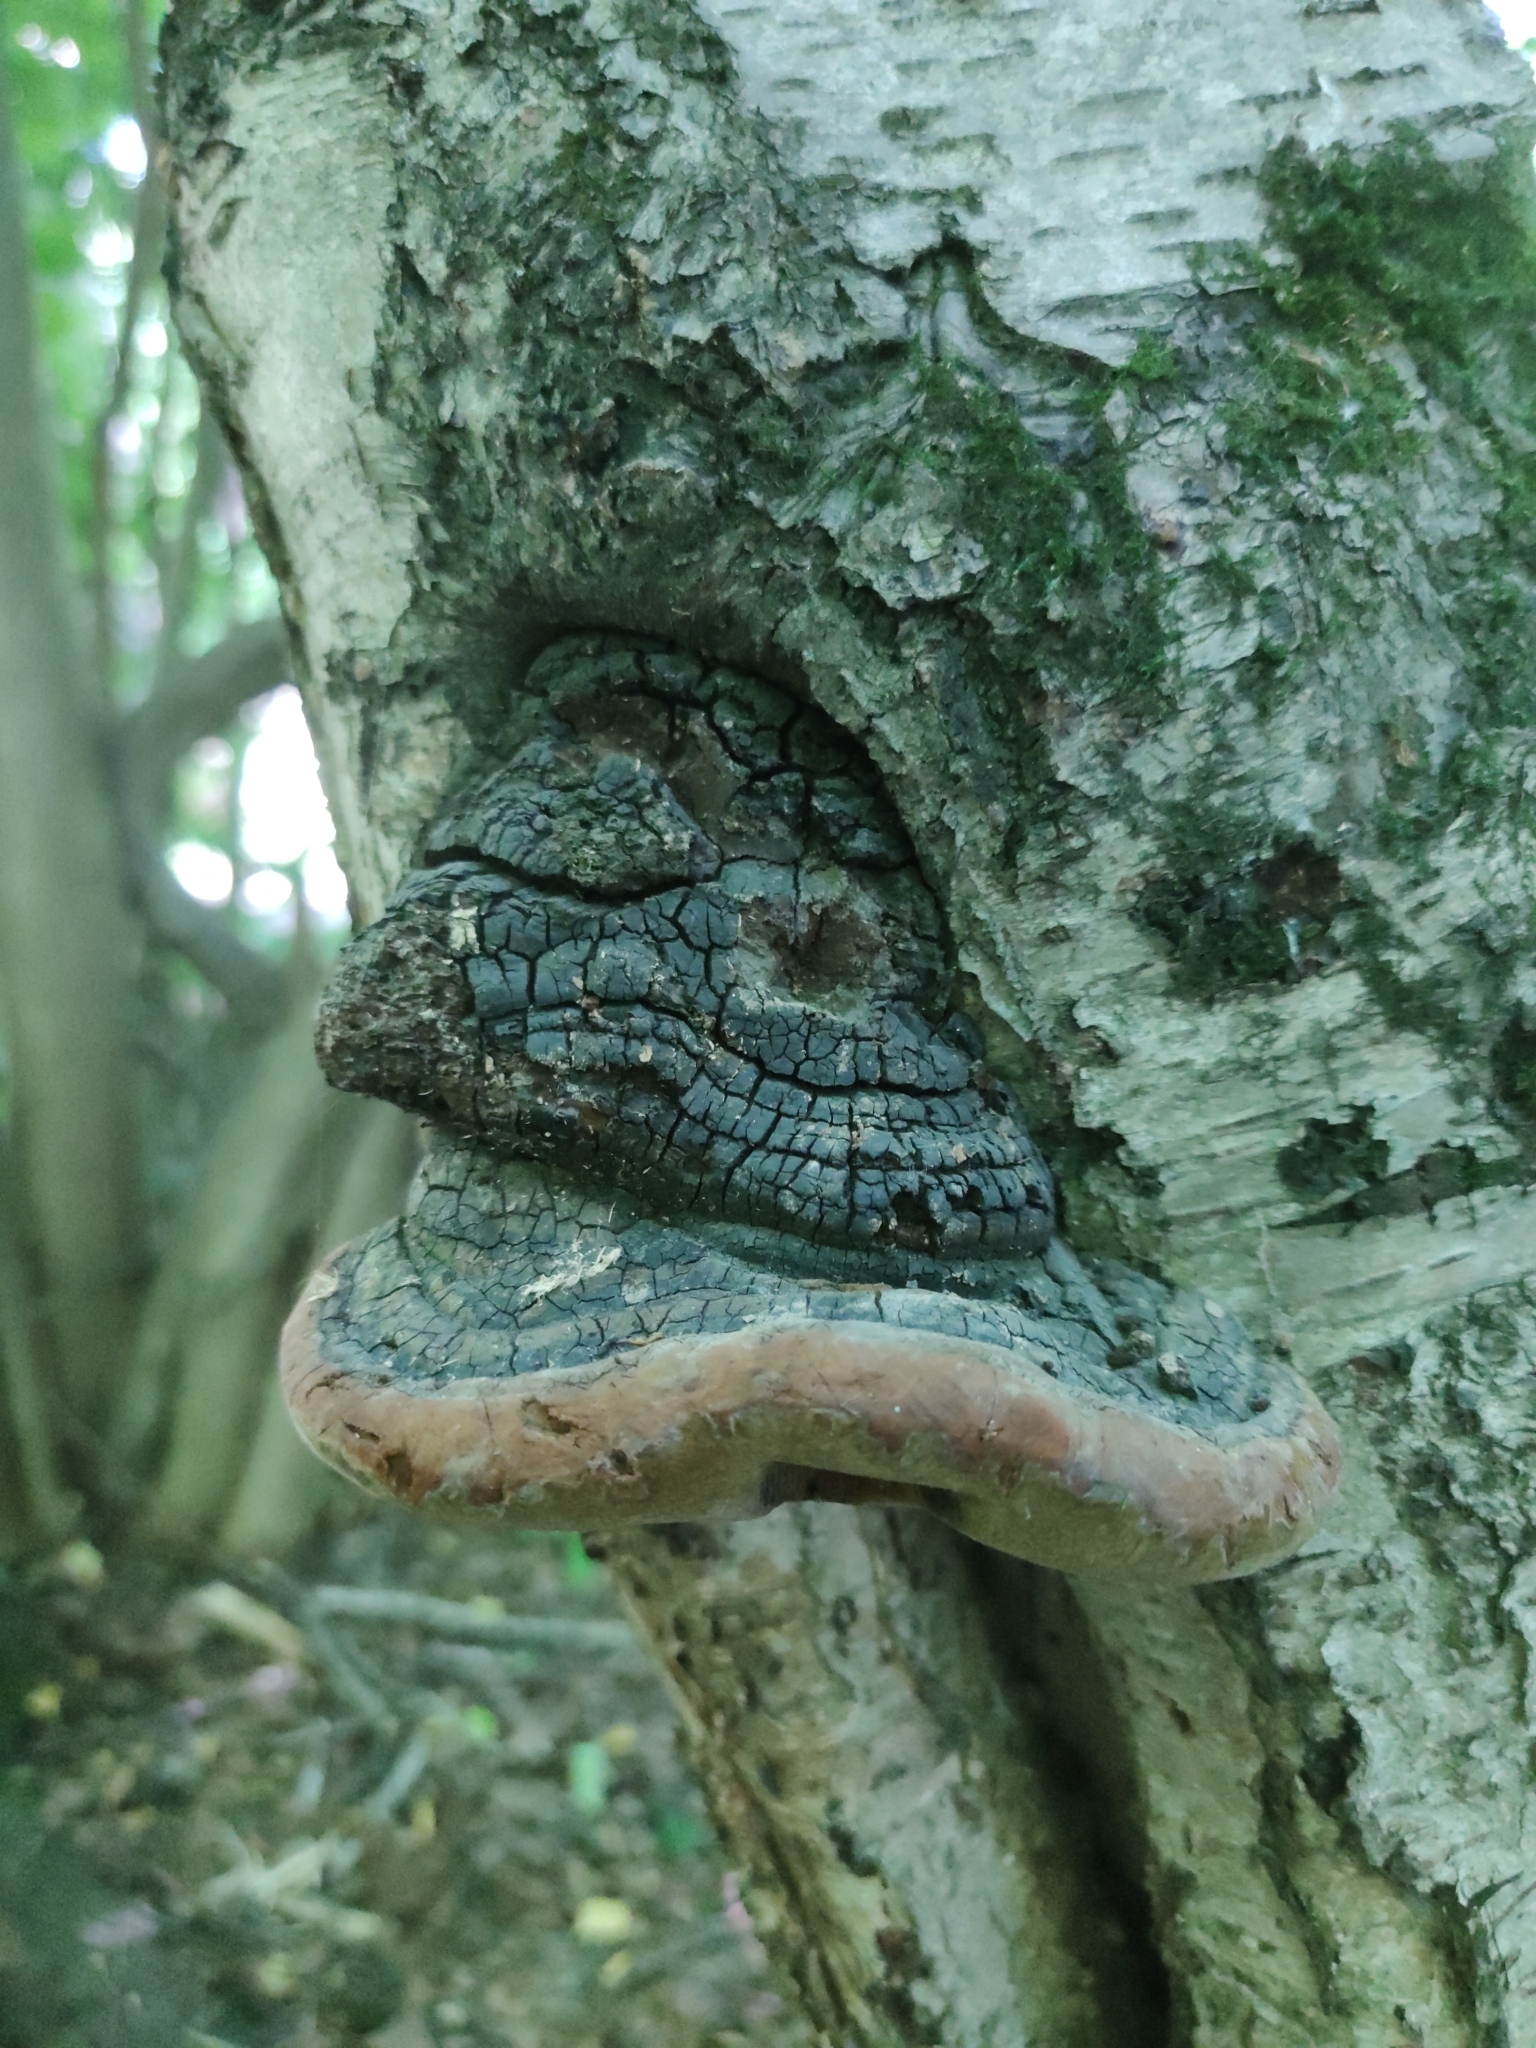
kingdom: Fungi
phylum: Basidiomycota
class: Agaricomycetes
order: Hymenochaetales
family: Hymenochaetaceae
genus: Phellinus
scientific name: Phellinus igniarius
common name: Willow bracket
